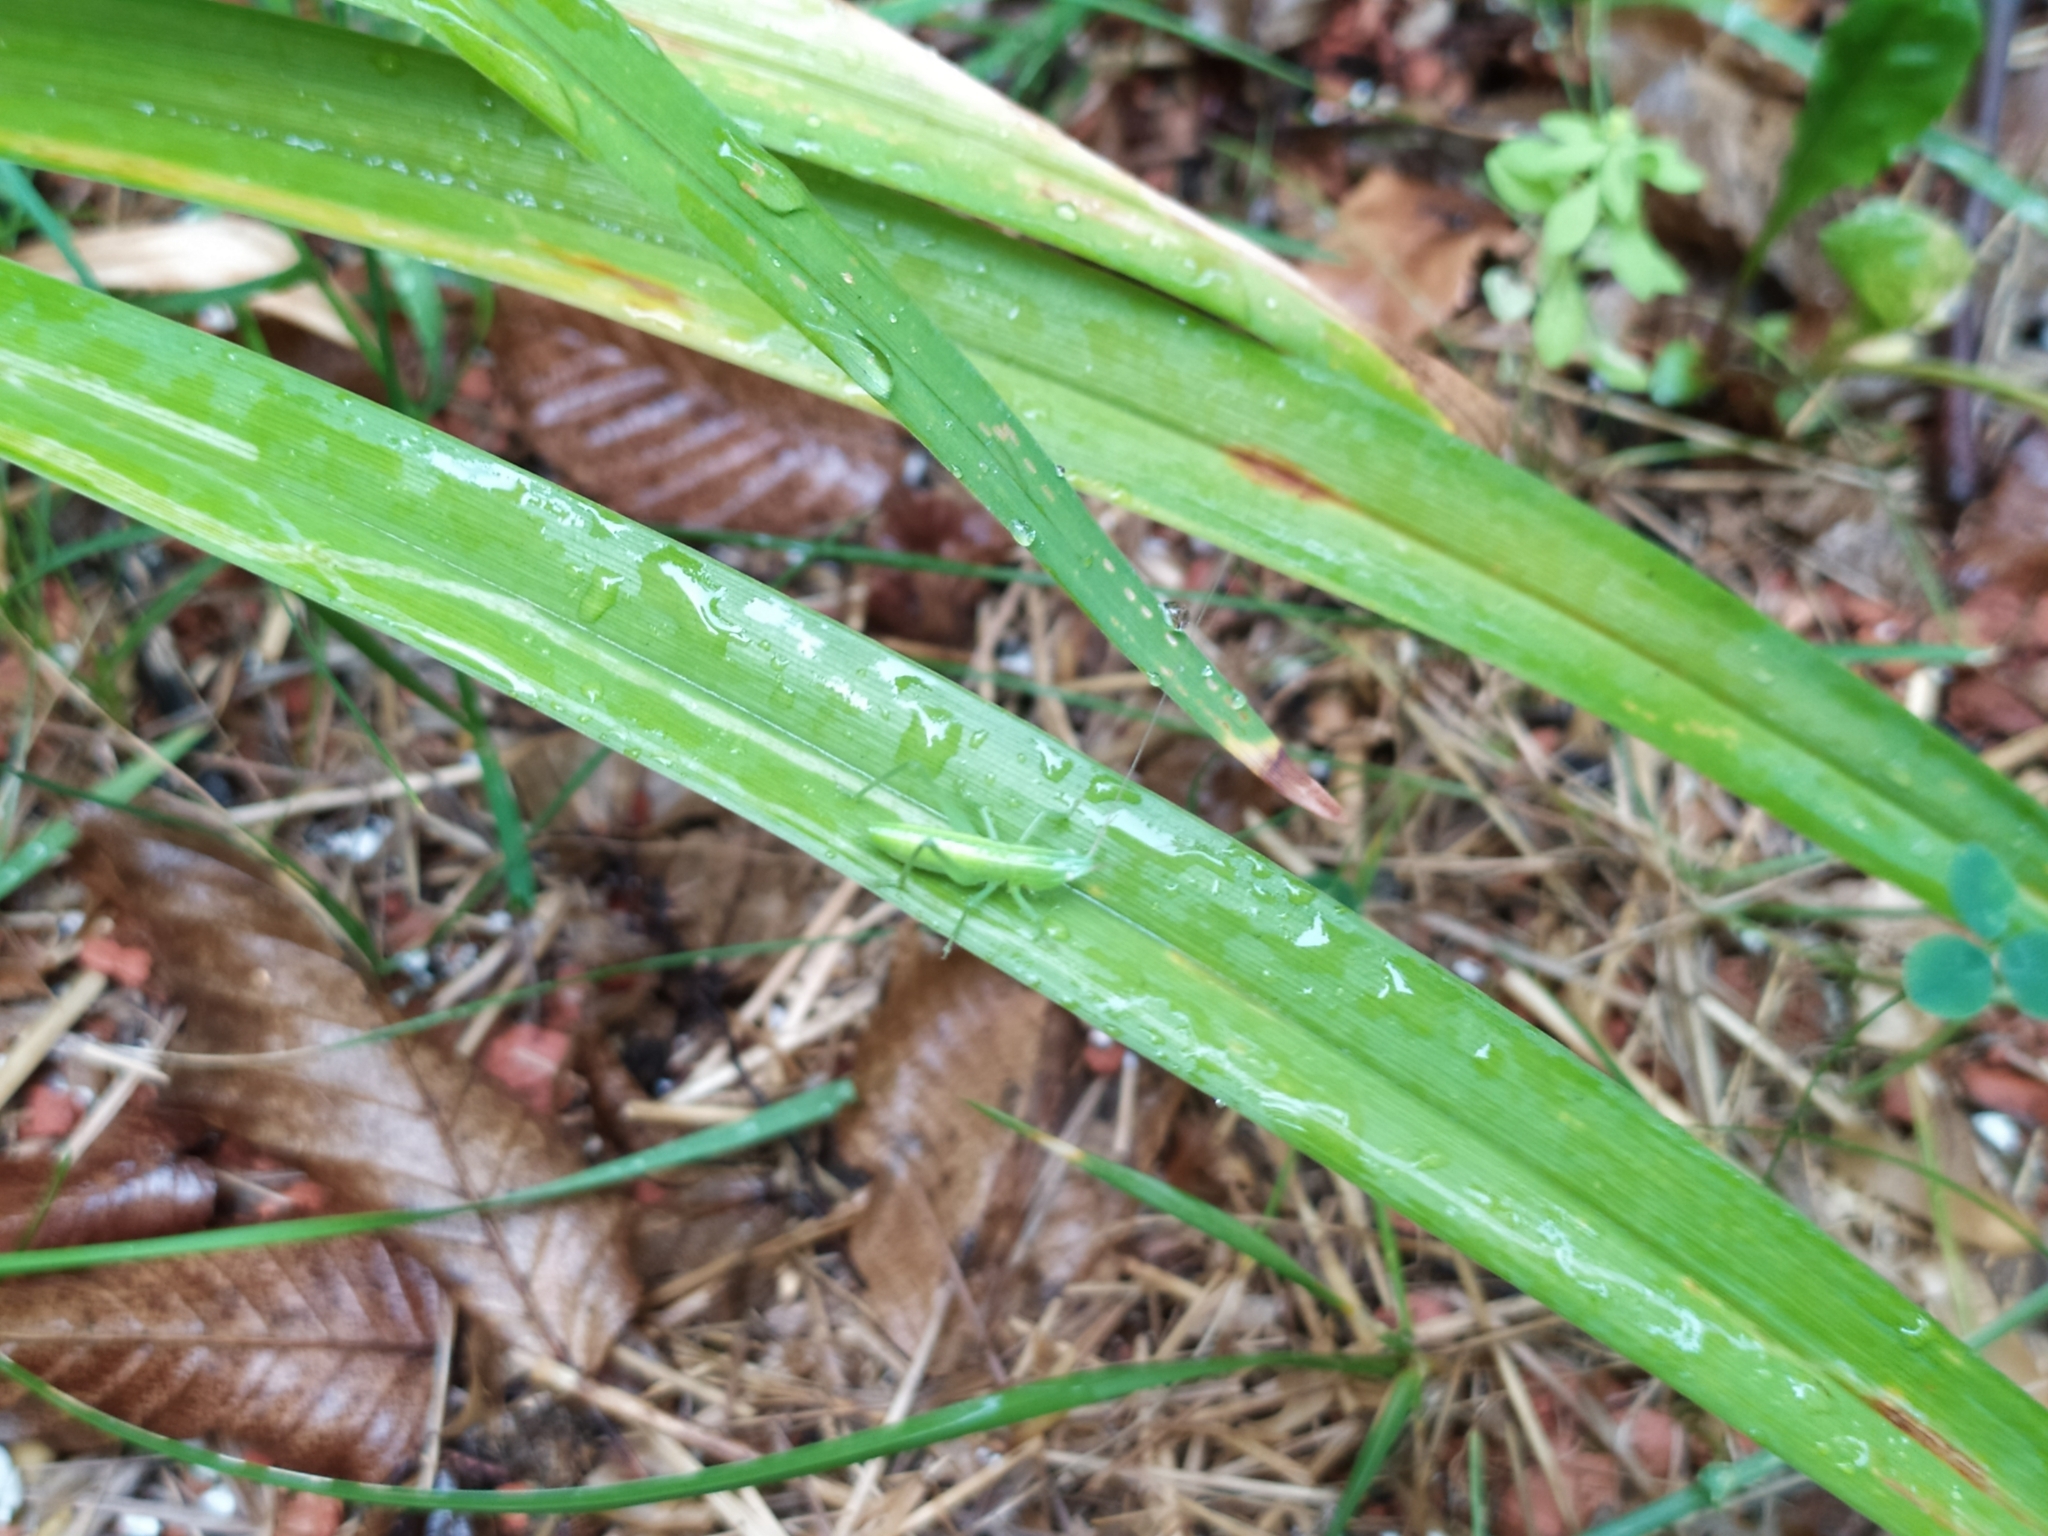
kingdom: Animalia
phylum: Arthropoda
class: Insecta
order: Orthoptera
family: Tettigoniidae
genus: Ruspolia
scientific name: Ruspolia nitidula
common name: Large conehead
